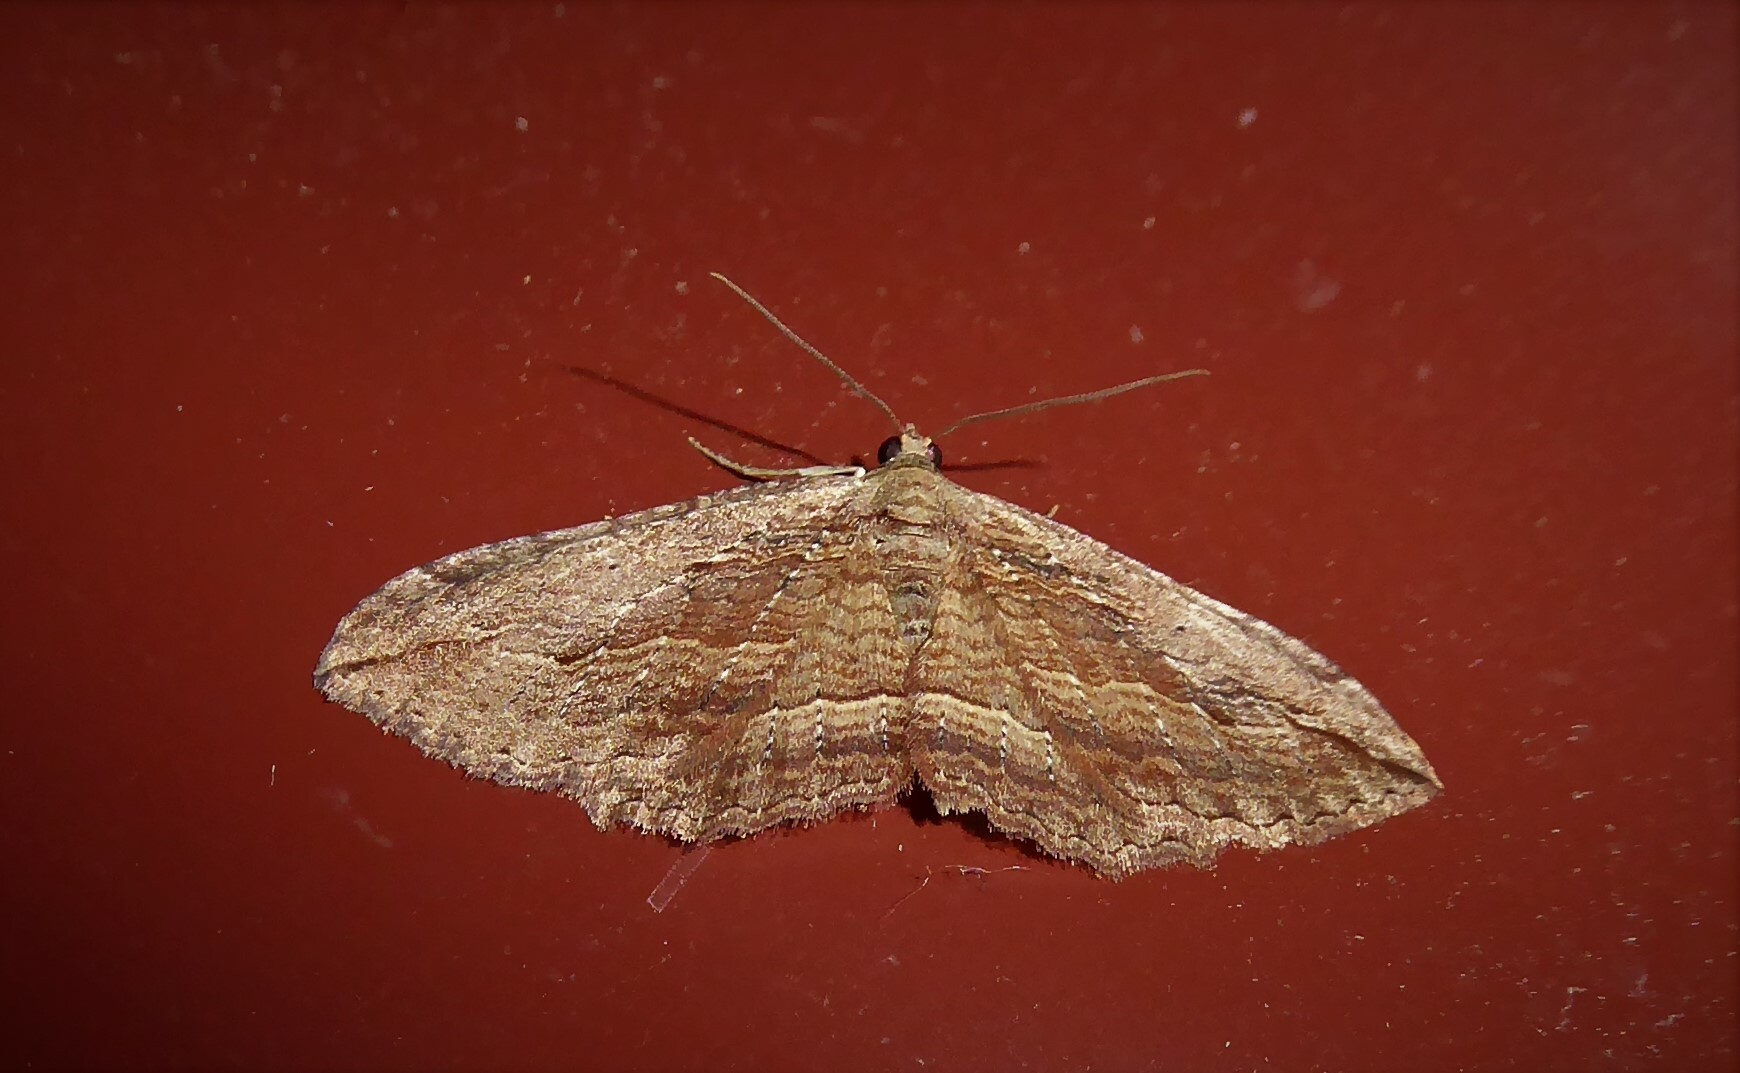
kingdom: Animalia
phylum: Arthropoda
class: Insecta
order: Lepidoptera
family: Geometridae
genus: Austrocidaria
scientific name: Austrocidaria gobiata
